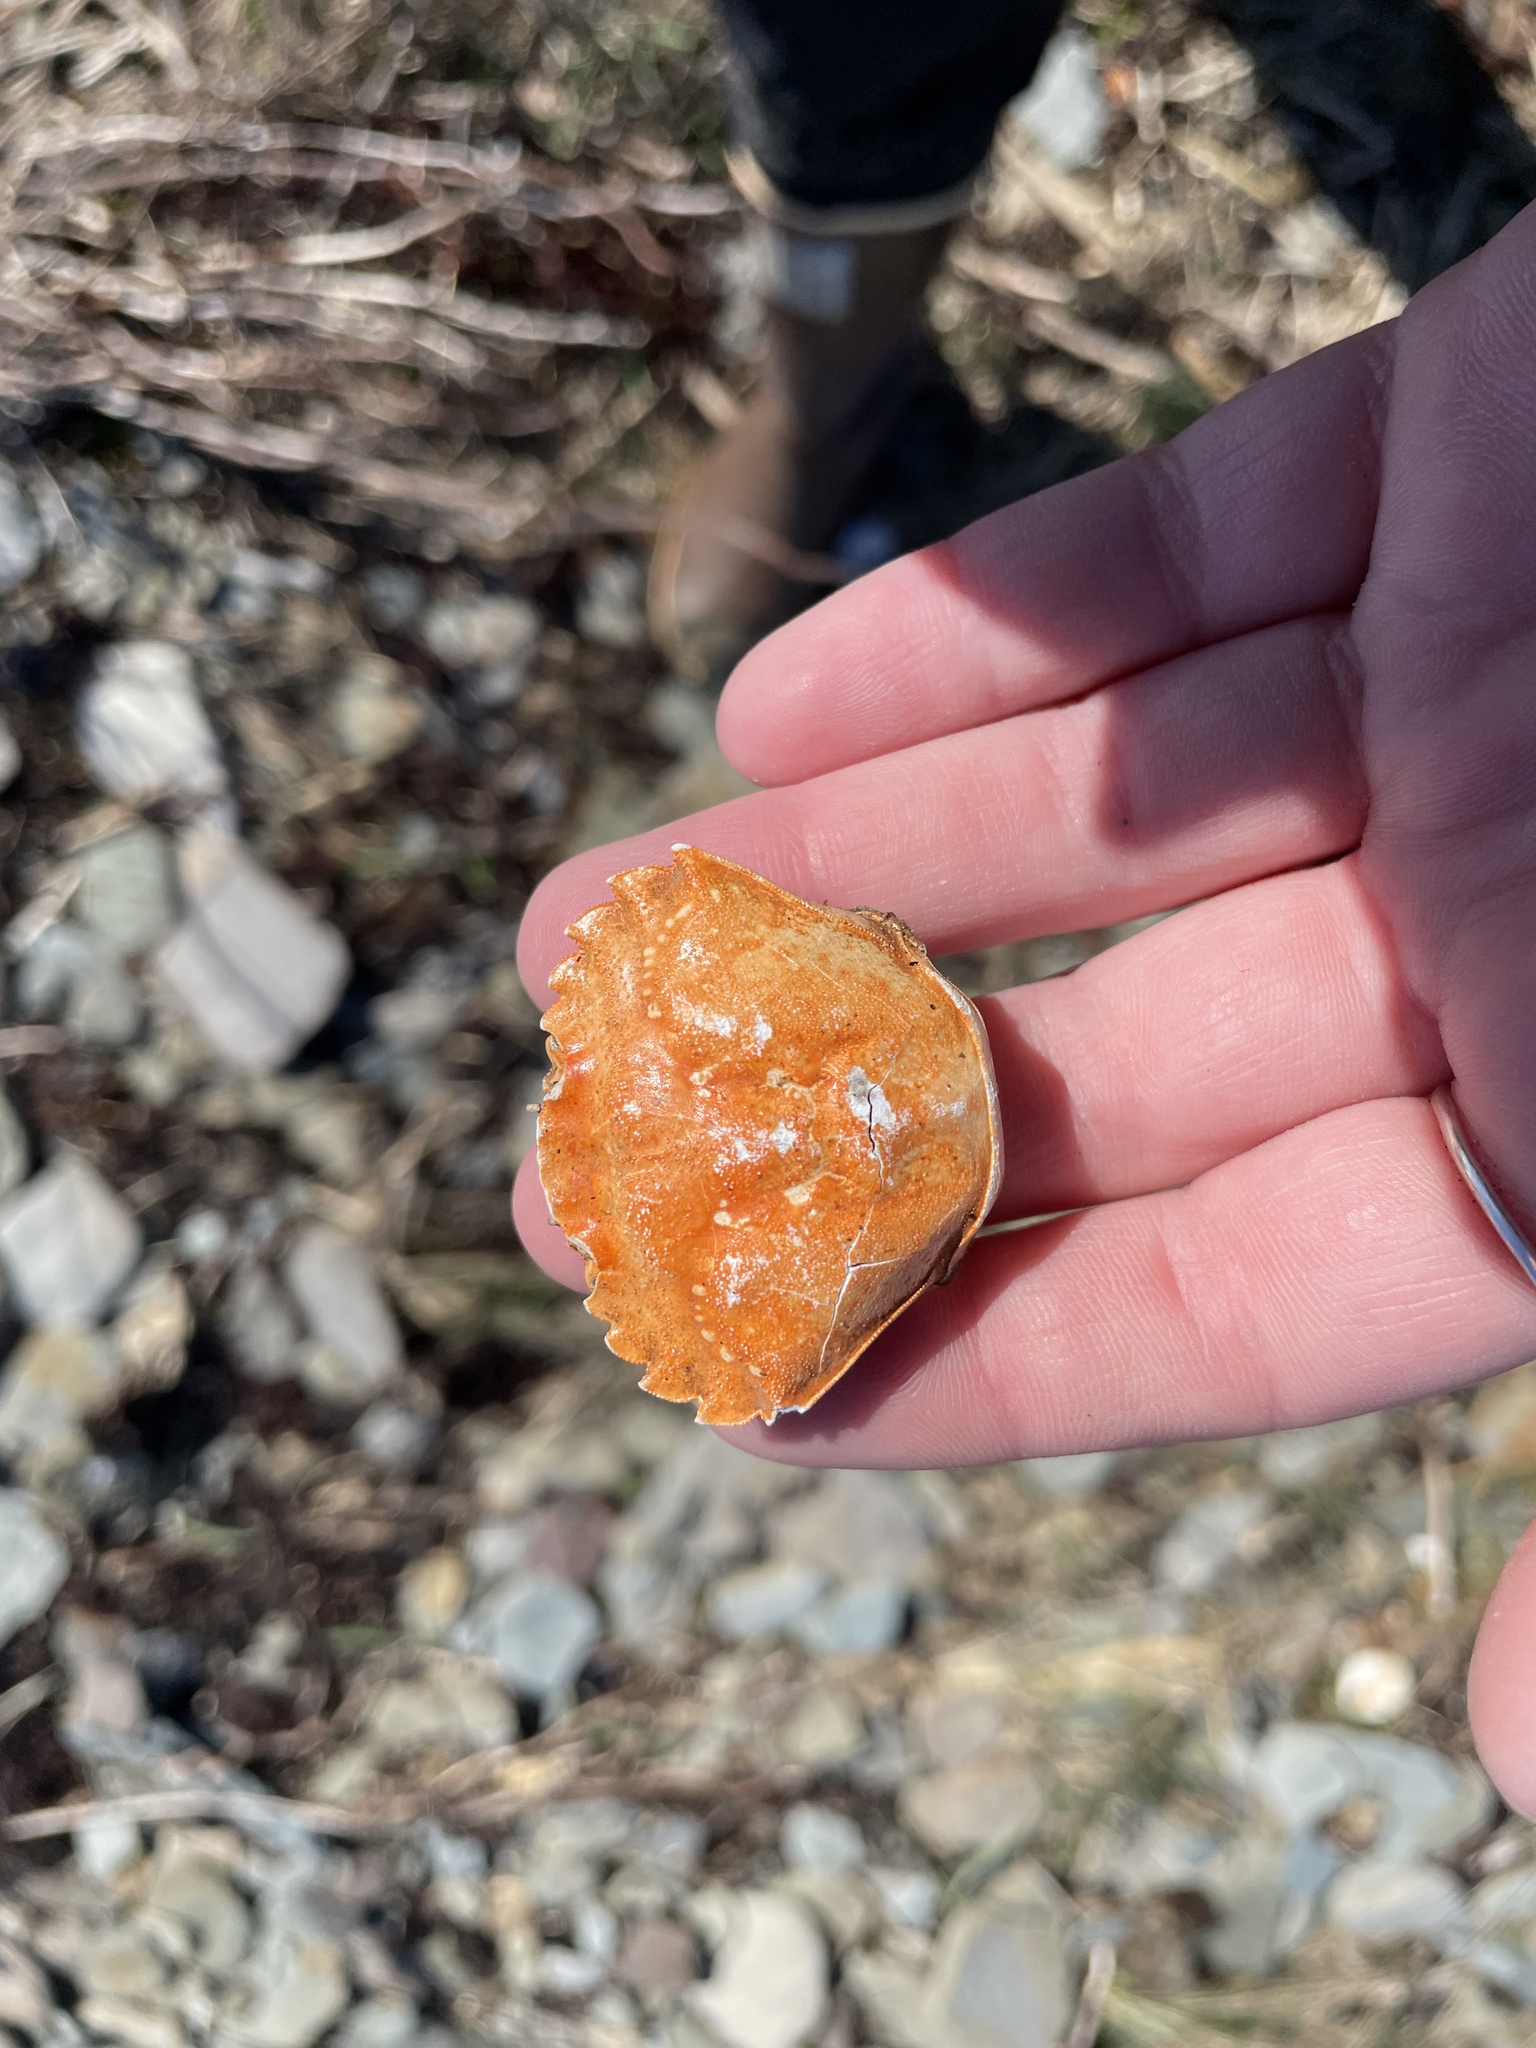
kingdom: Animalia
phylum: Arthropoda
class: Malacostraca
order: Decapoda
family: Carcinidae
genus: Carcinus
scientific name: Carcinus maenas
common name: European green crab
